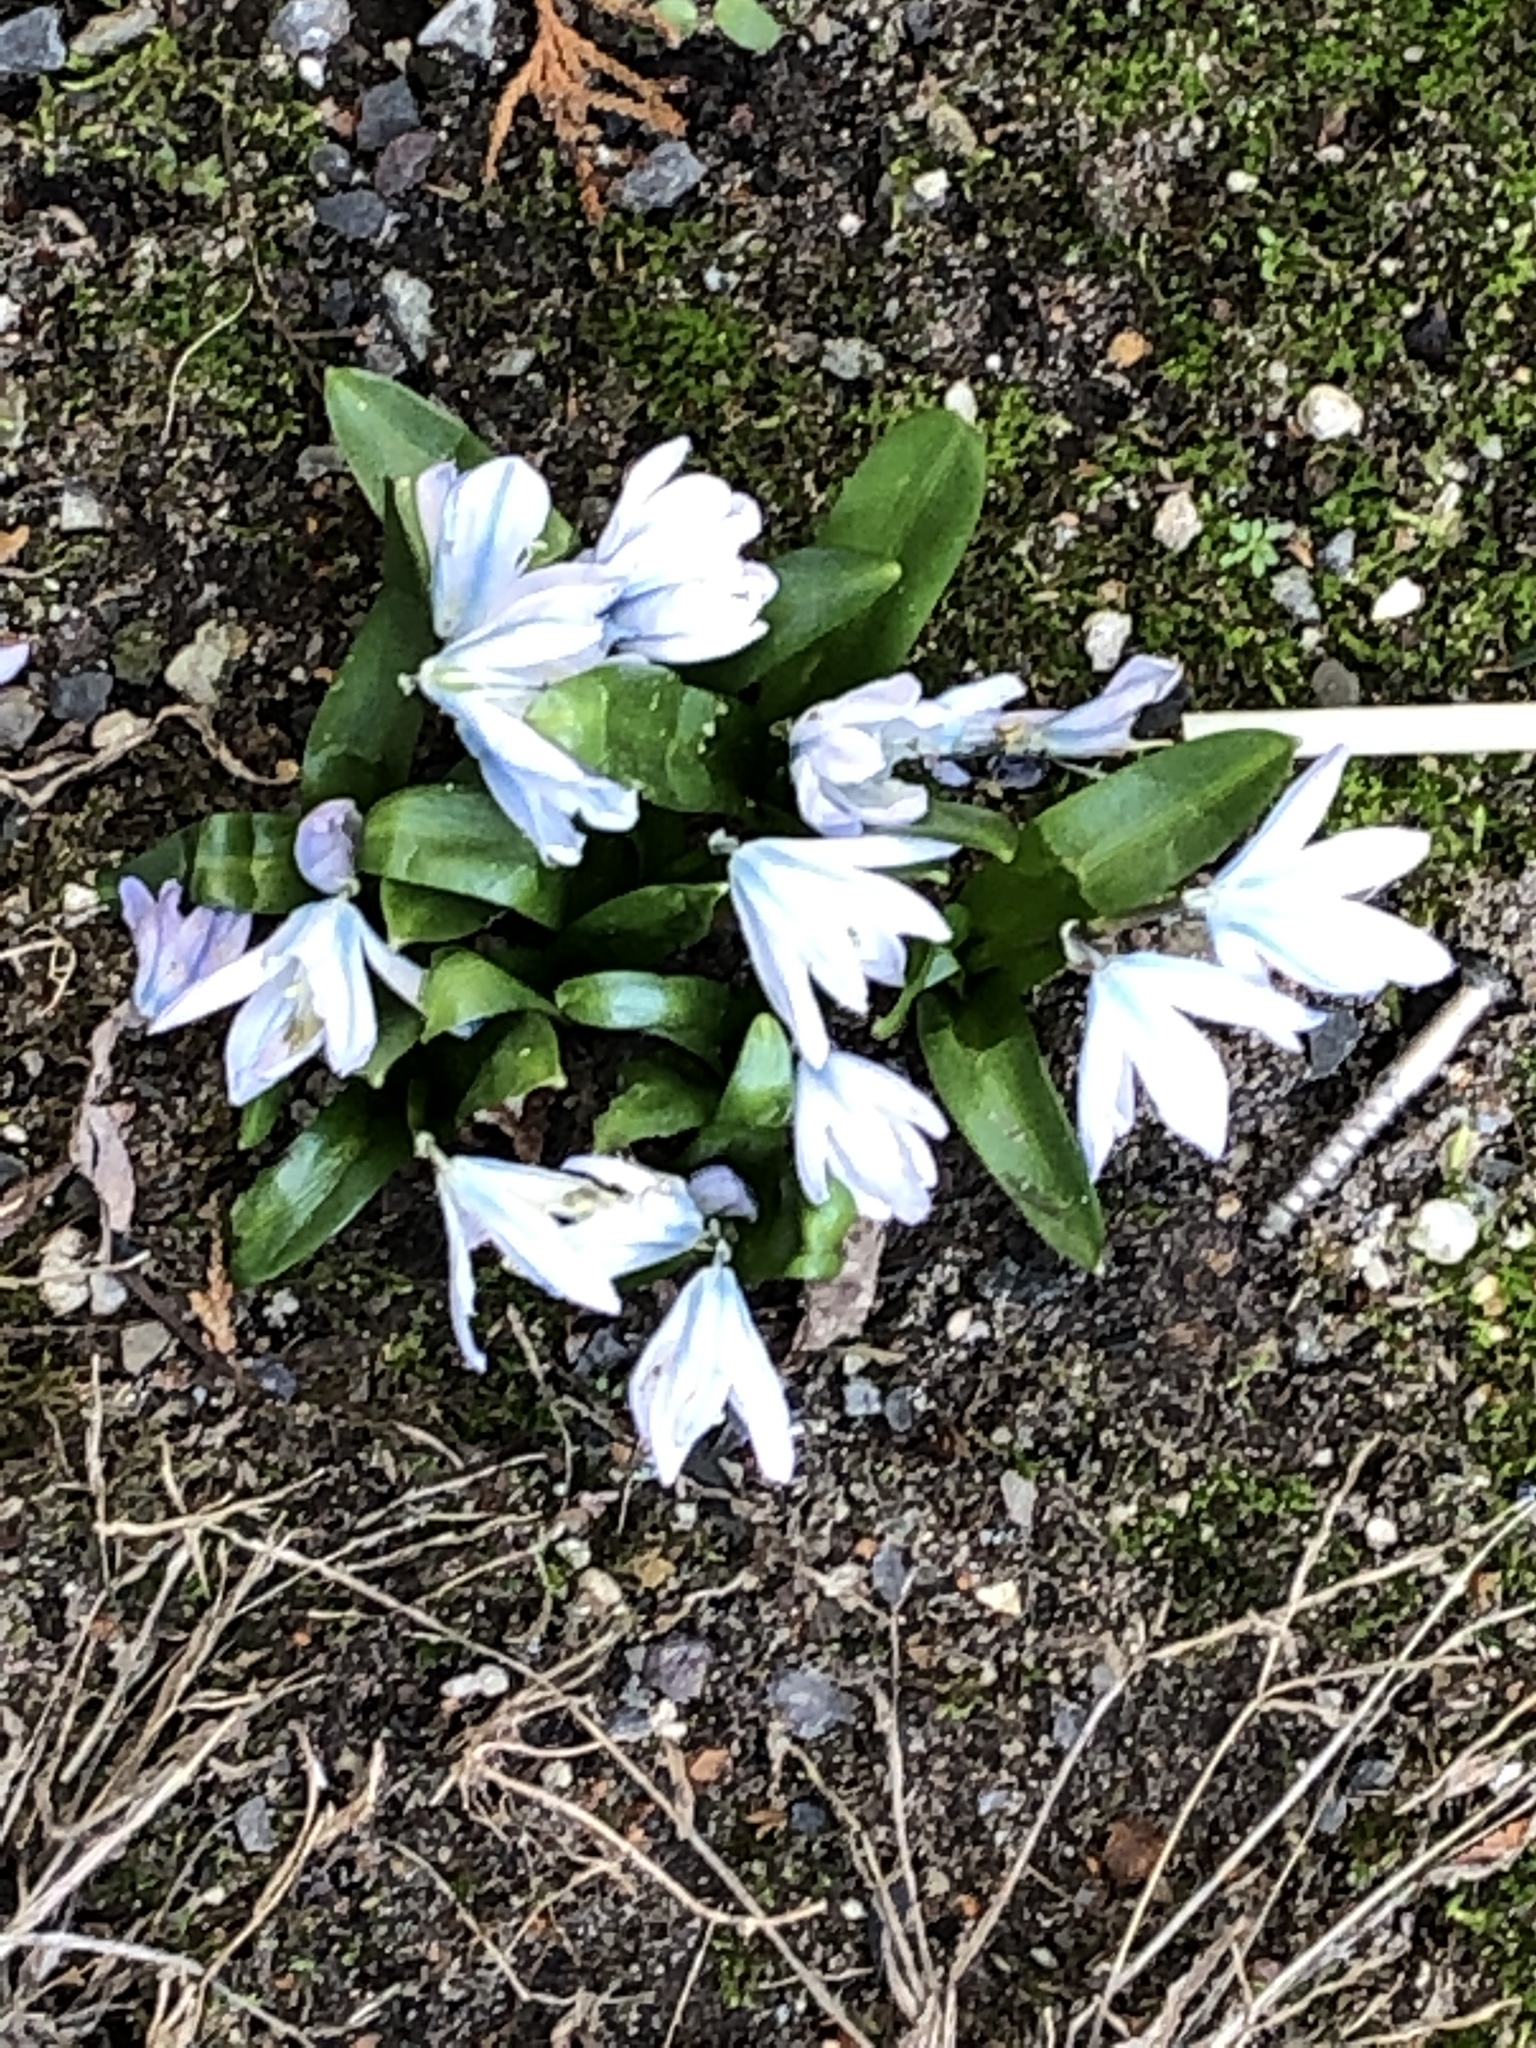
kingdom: Plantae
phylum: Tracheophyta
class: Liliopsida
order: Asparagales
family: Asparagaceae
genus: Scilla
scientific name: Scilla mischtschenkoana
